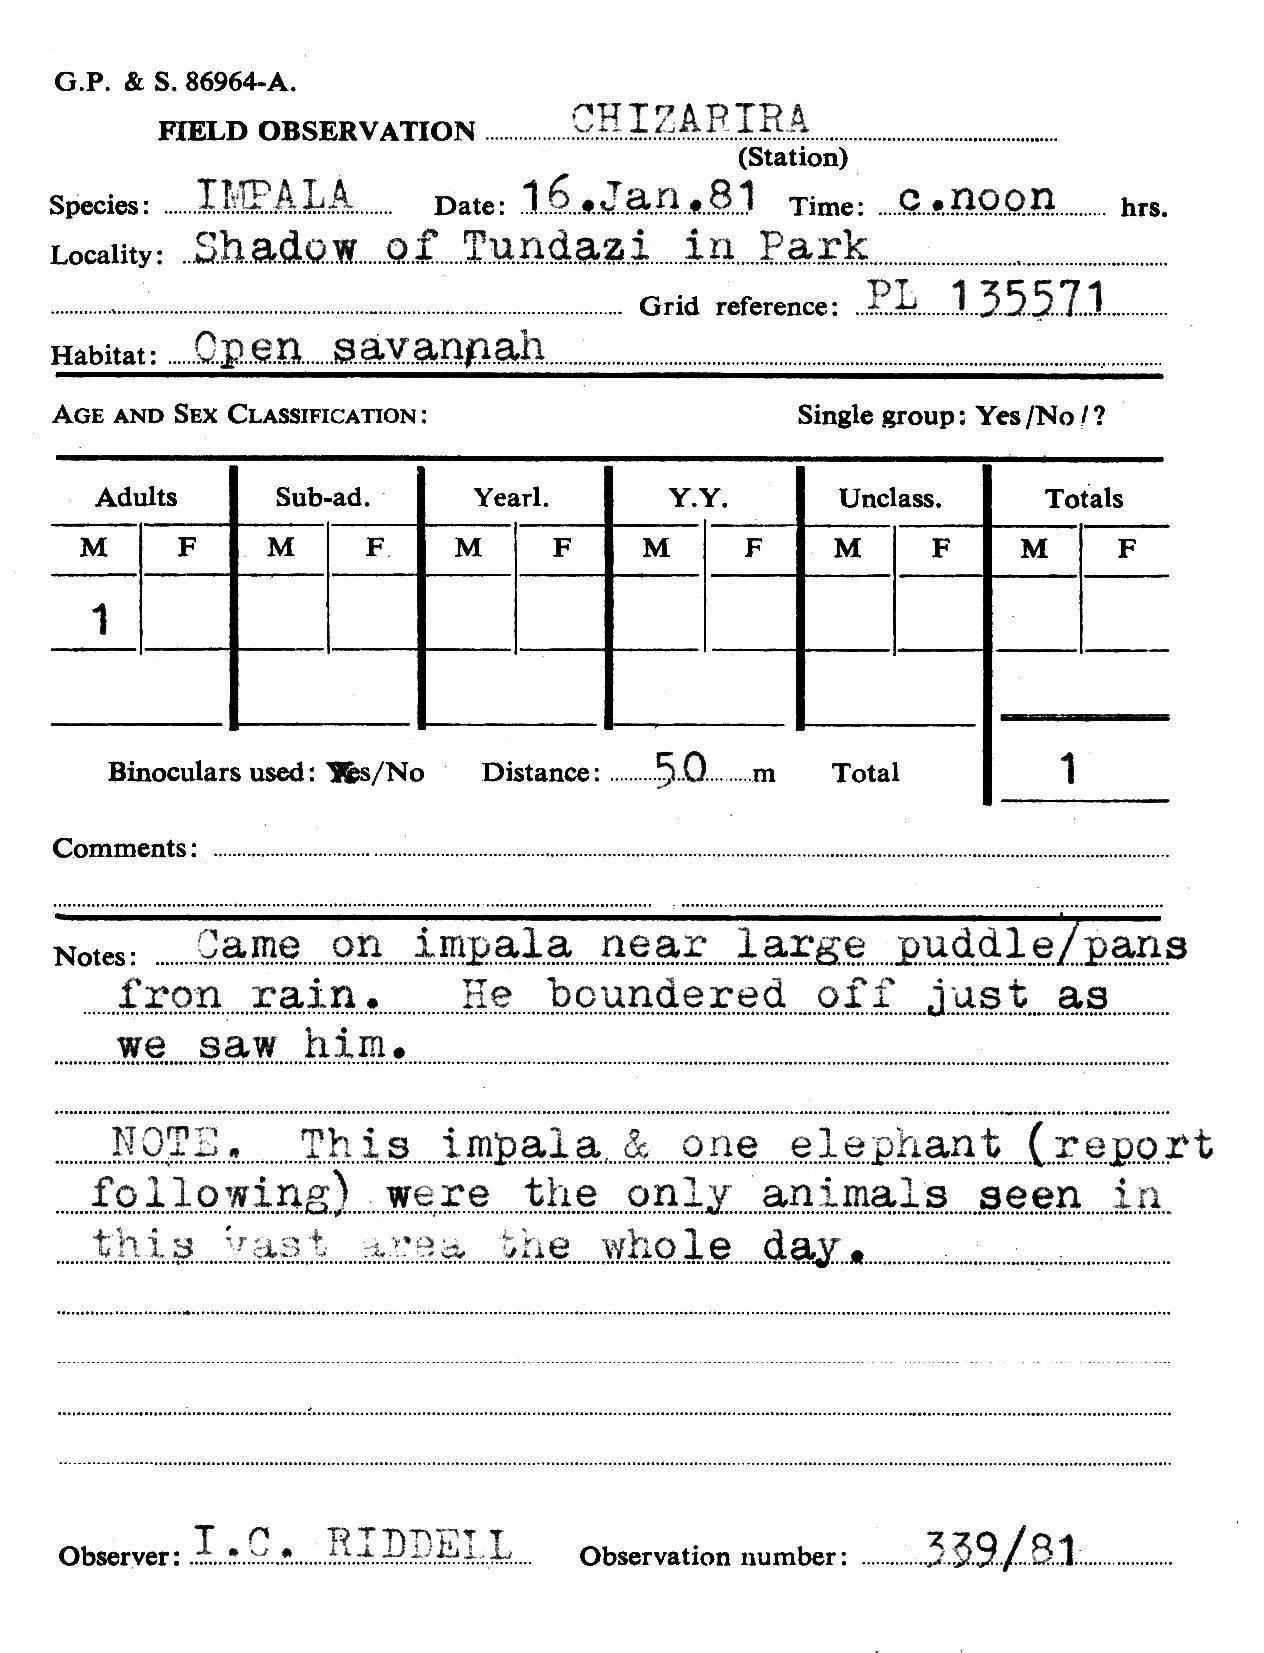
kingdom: Animalia
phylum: Chordata
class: Mammalia
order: Artiodactyla
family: Bovidae
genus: Aepyceros
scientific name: Aepyceros melampus
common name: Impala
